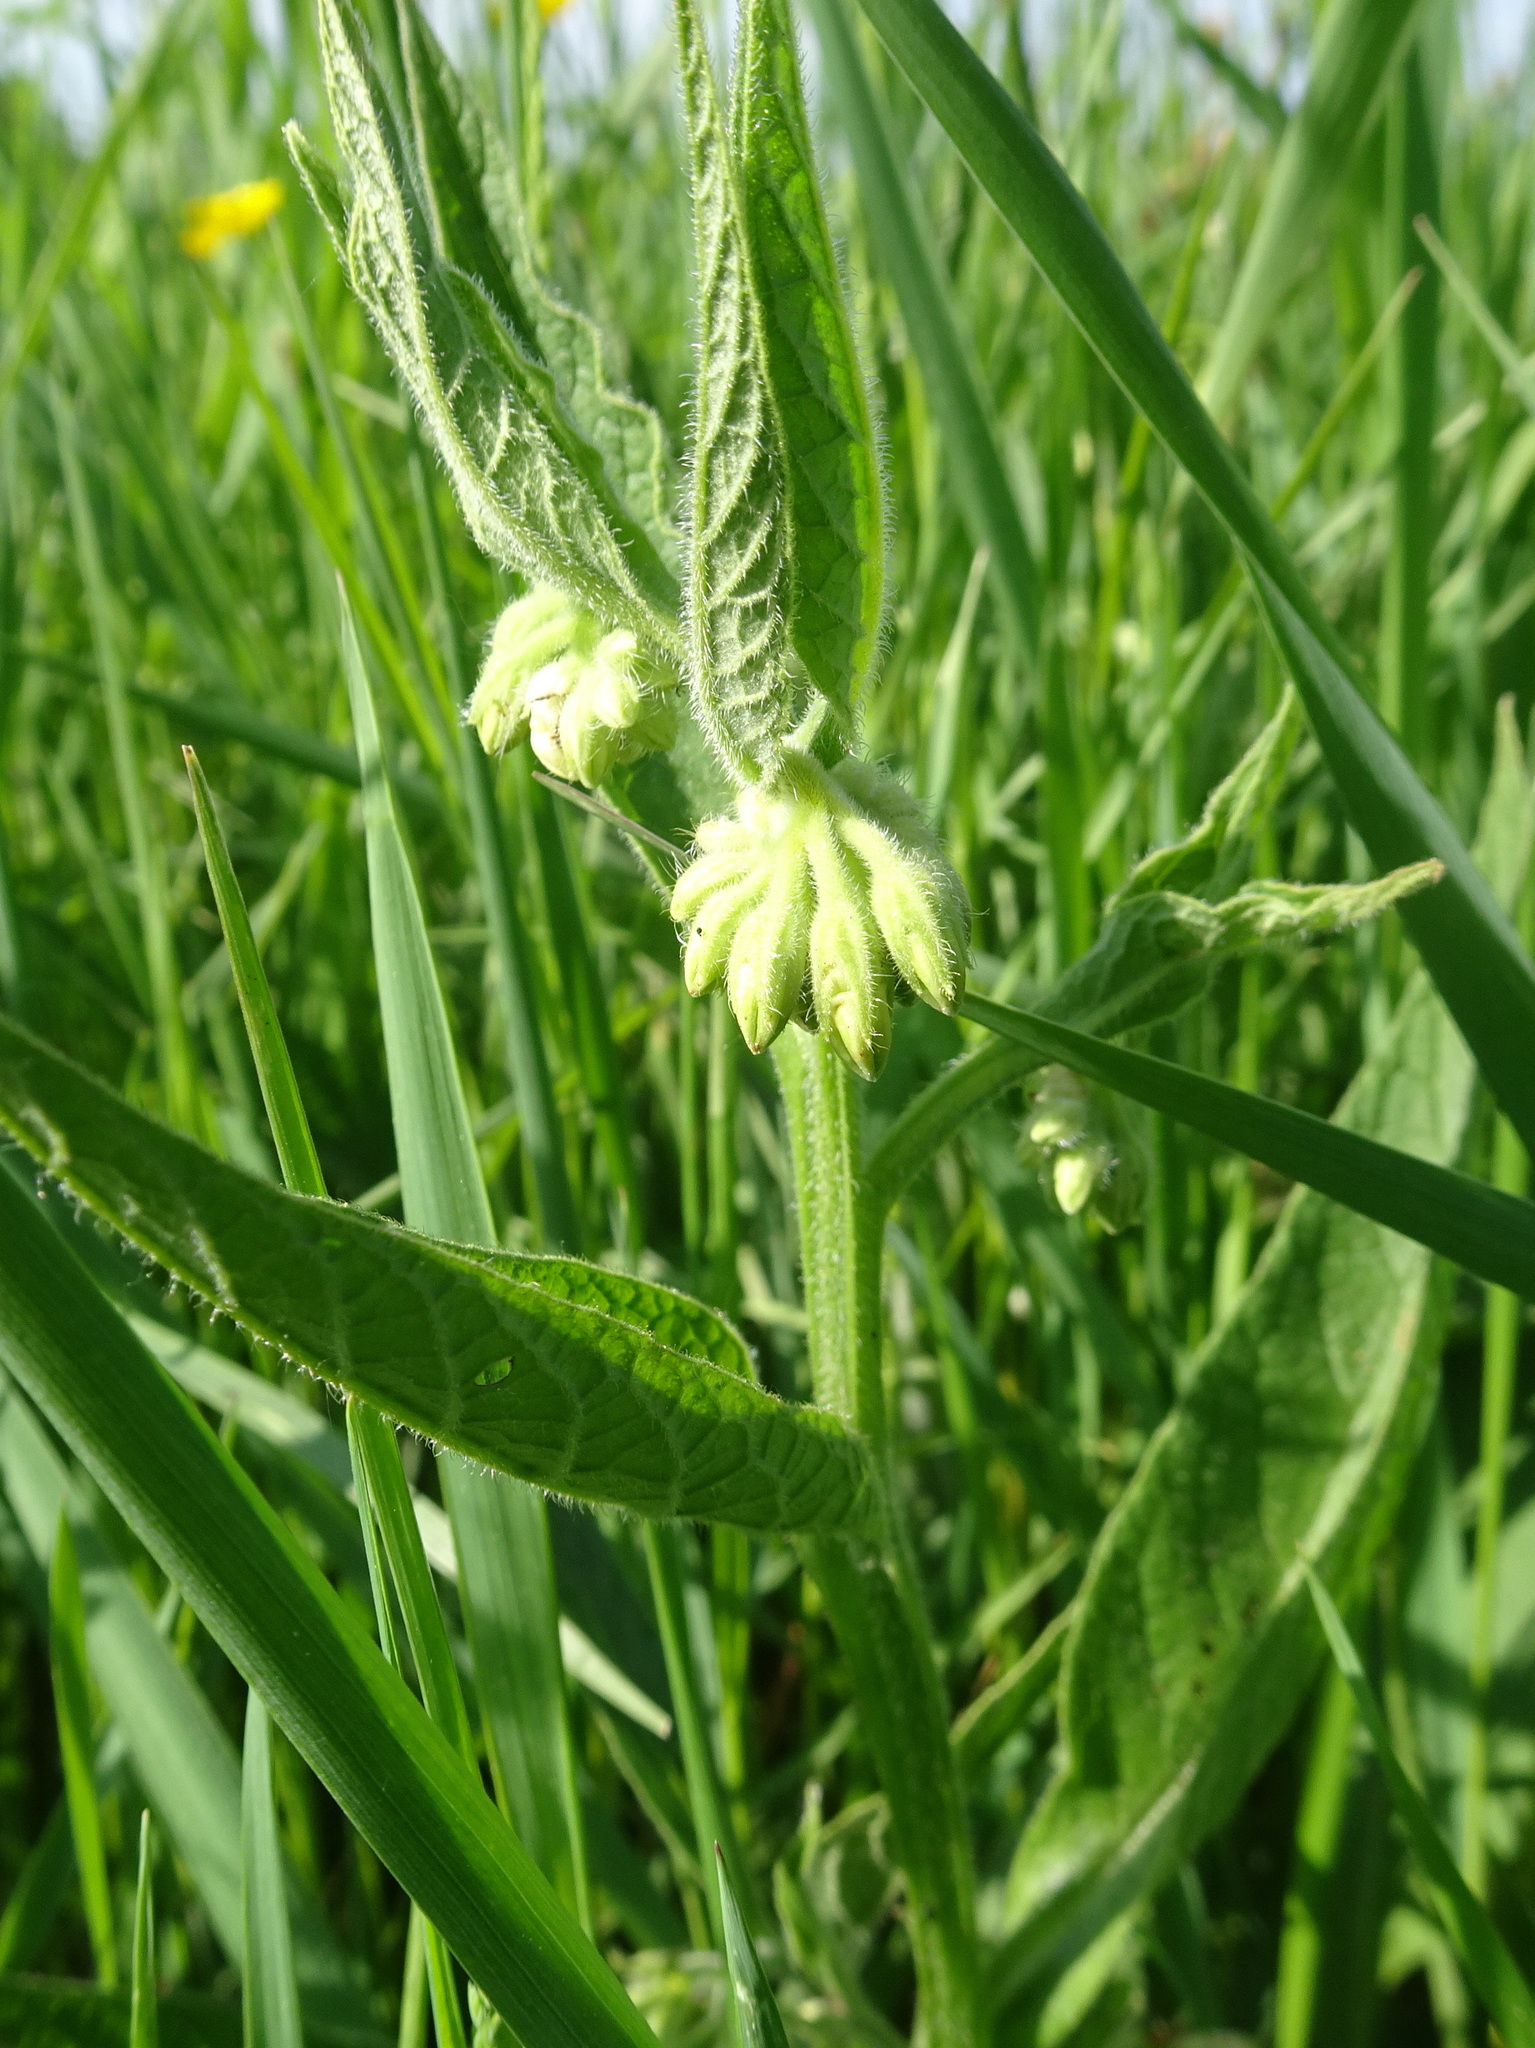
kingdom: Plantae
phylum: Tracheophyta
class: Magnoliopsida
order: Boraginales
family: Boraginaceae
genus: Symphytum
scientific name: Symphytum officinale
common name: Common comfrey
